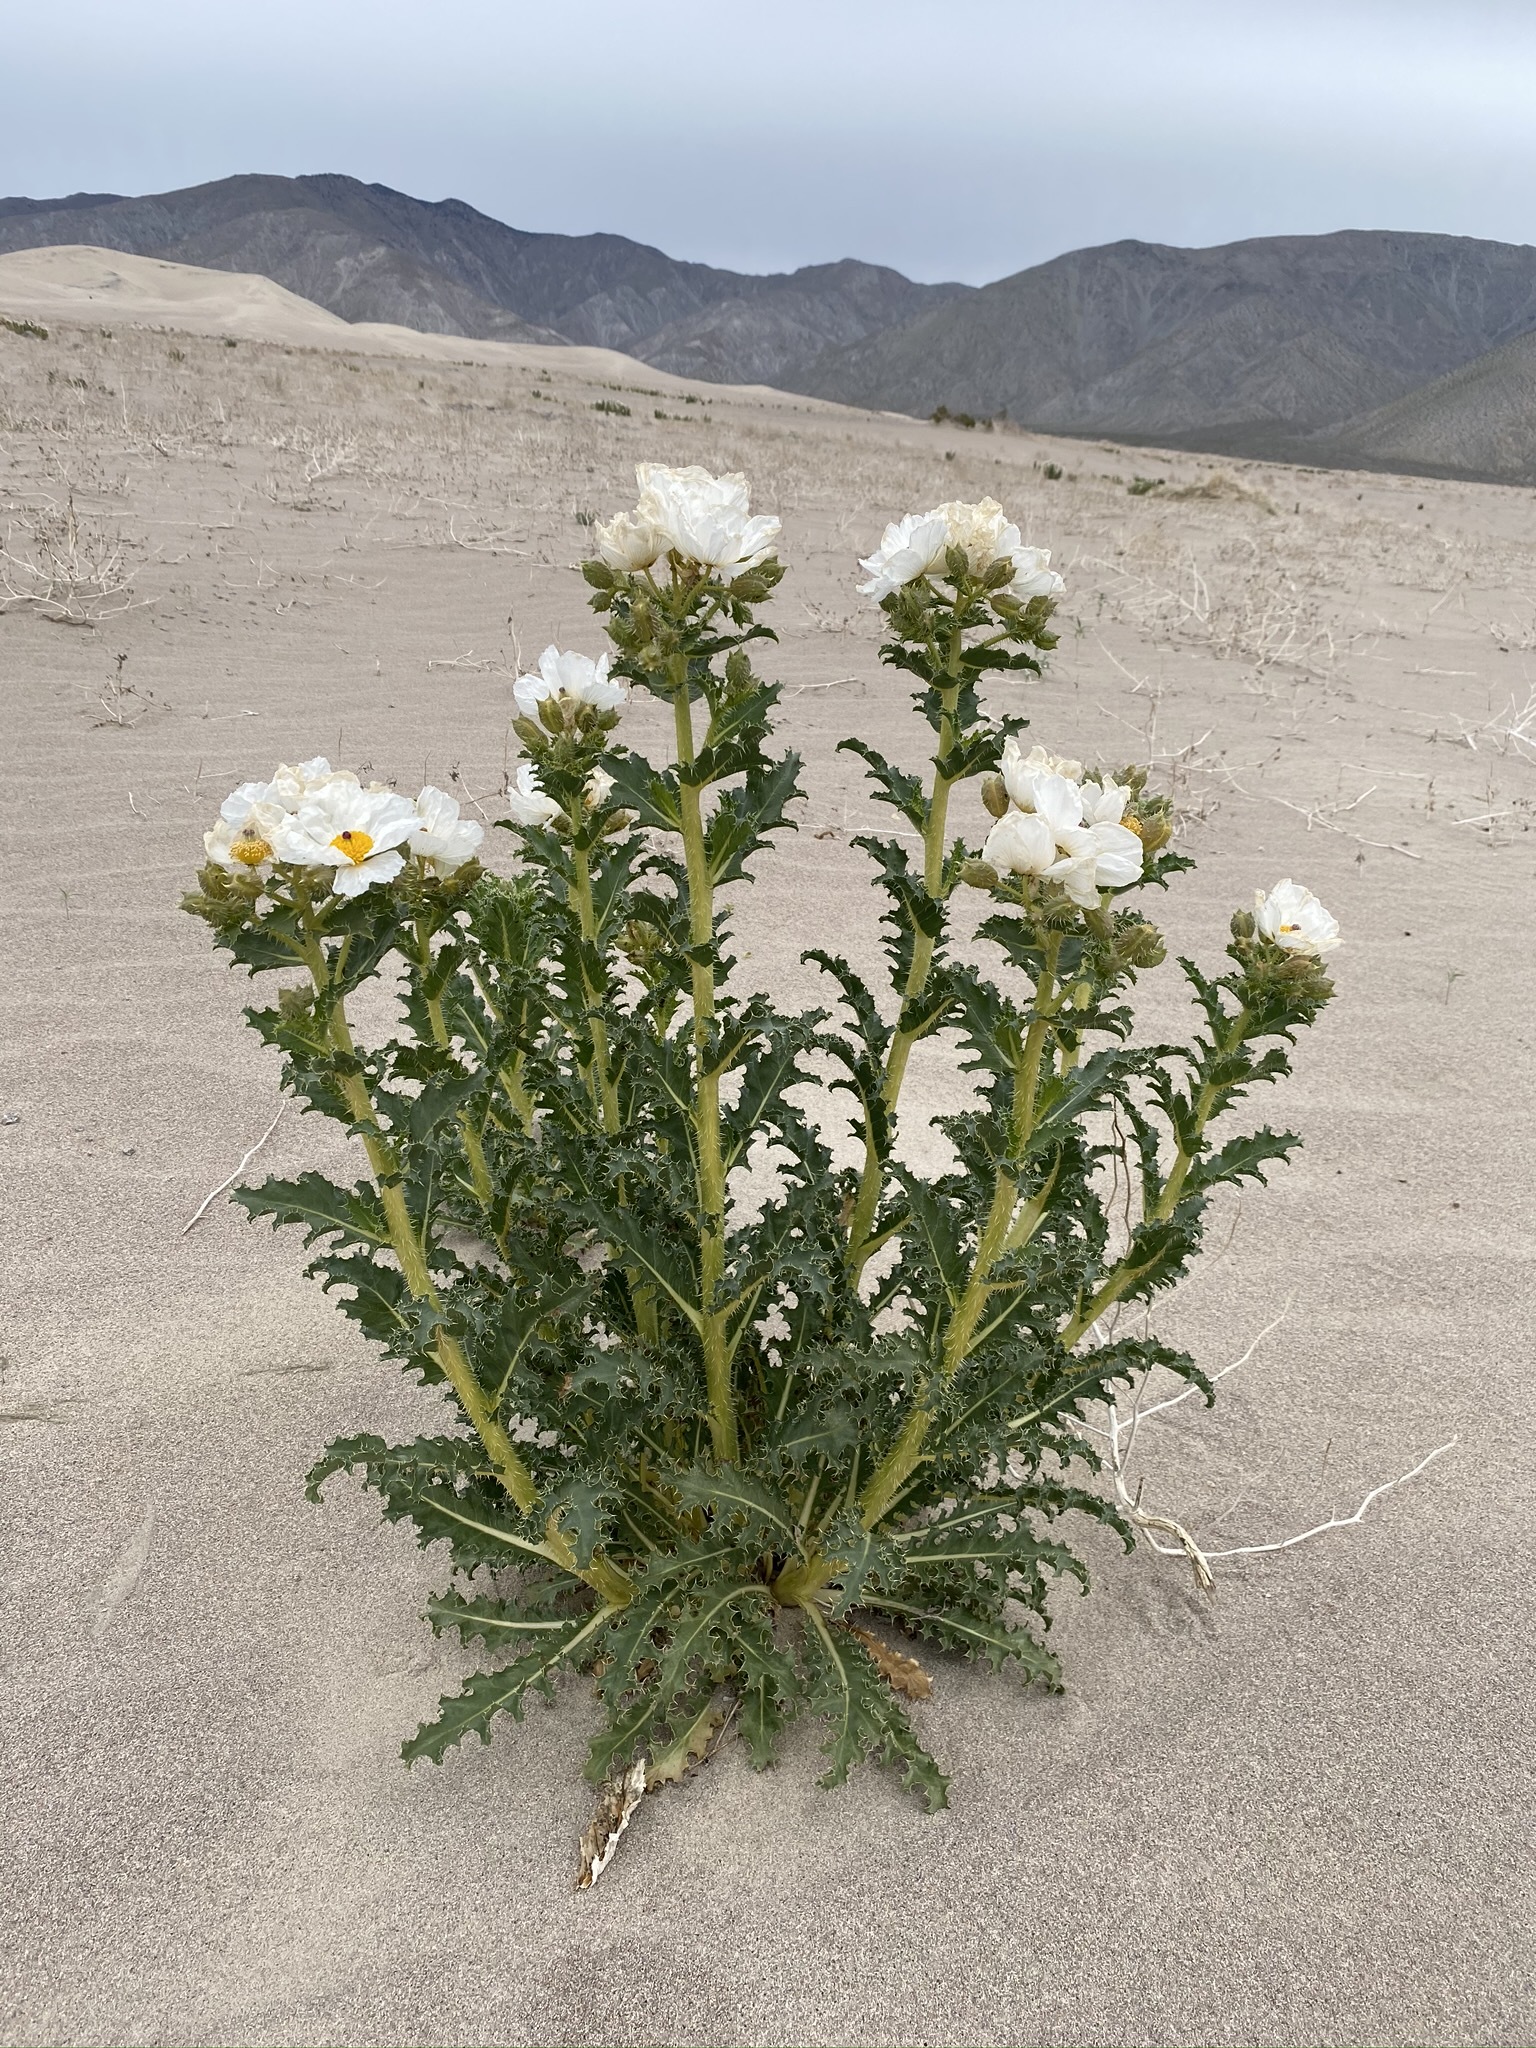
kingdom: Plantae
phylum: Tracheophyta
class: Magnoliopsida
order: Ranunculales
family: Papaveraceae
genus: Argemone
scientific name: Argemone corymbosa
